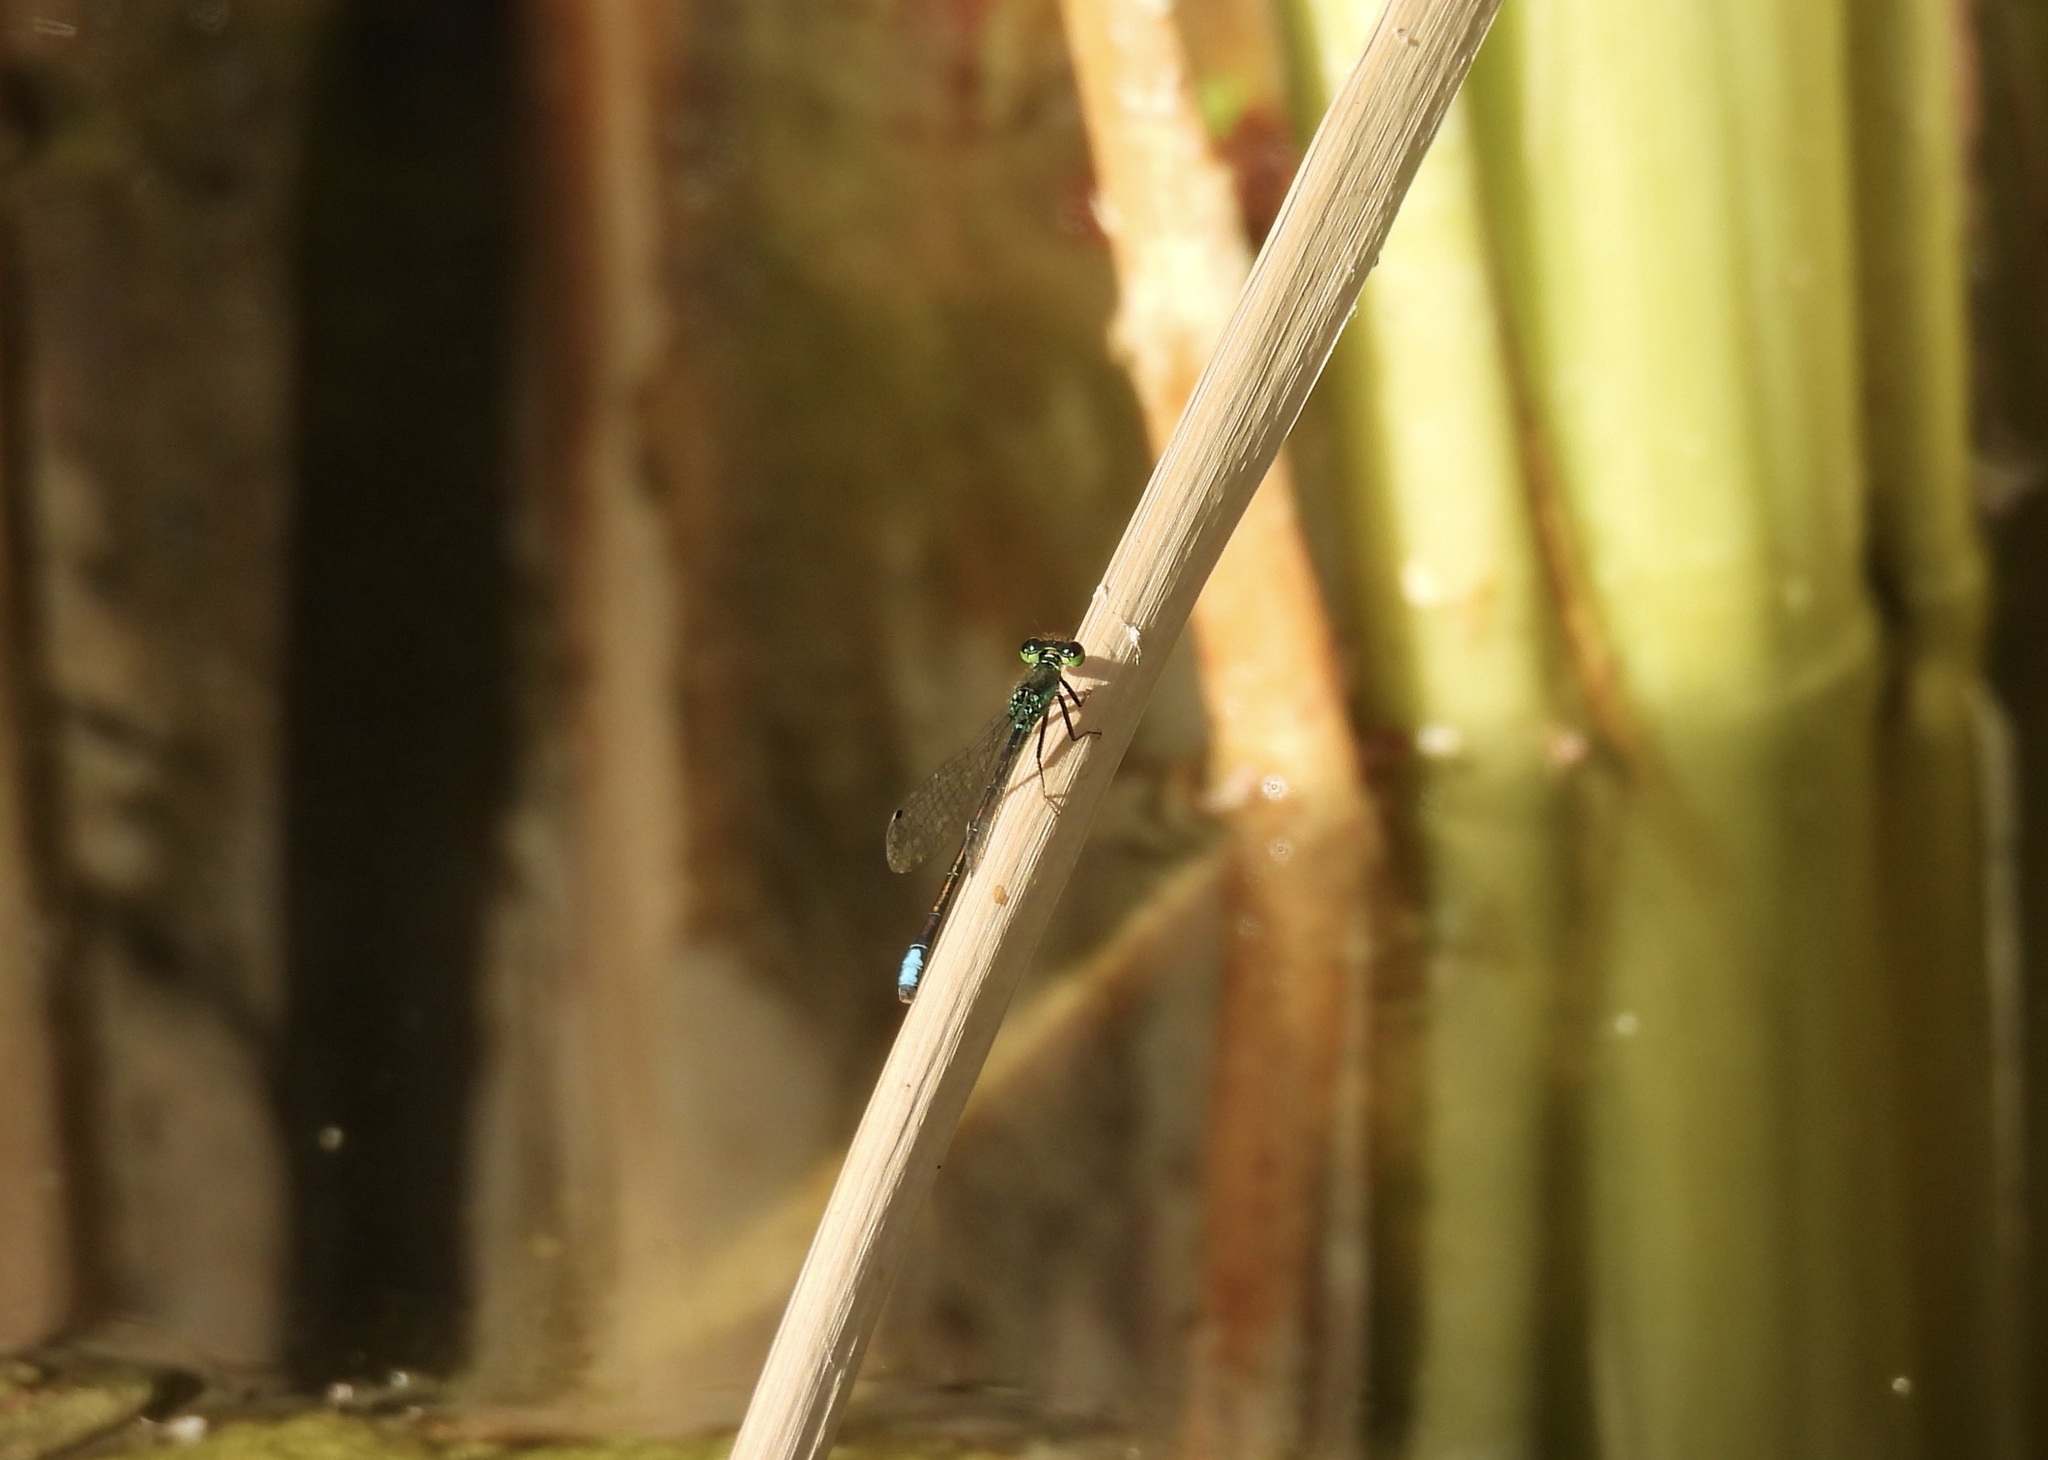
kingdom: Animalia
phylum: Arthropoda
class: Insecta
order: Odonata
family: Coenagrionidae
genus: Ischnura
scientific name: Ischnura denticollis
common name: Black-fronted forktail
